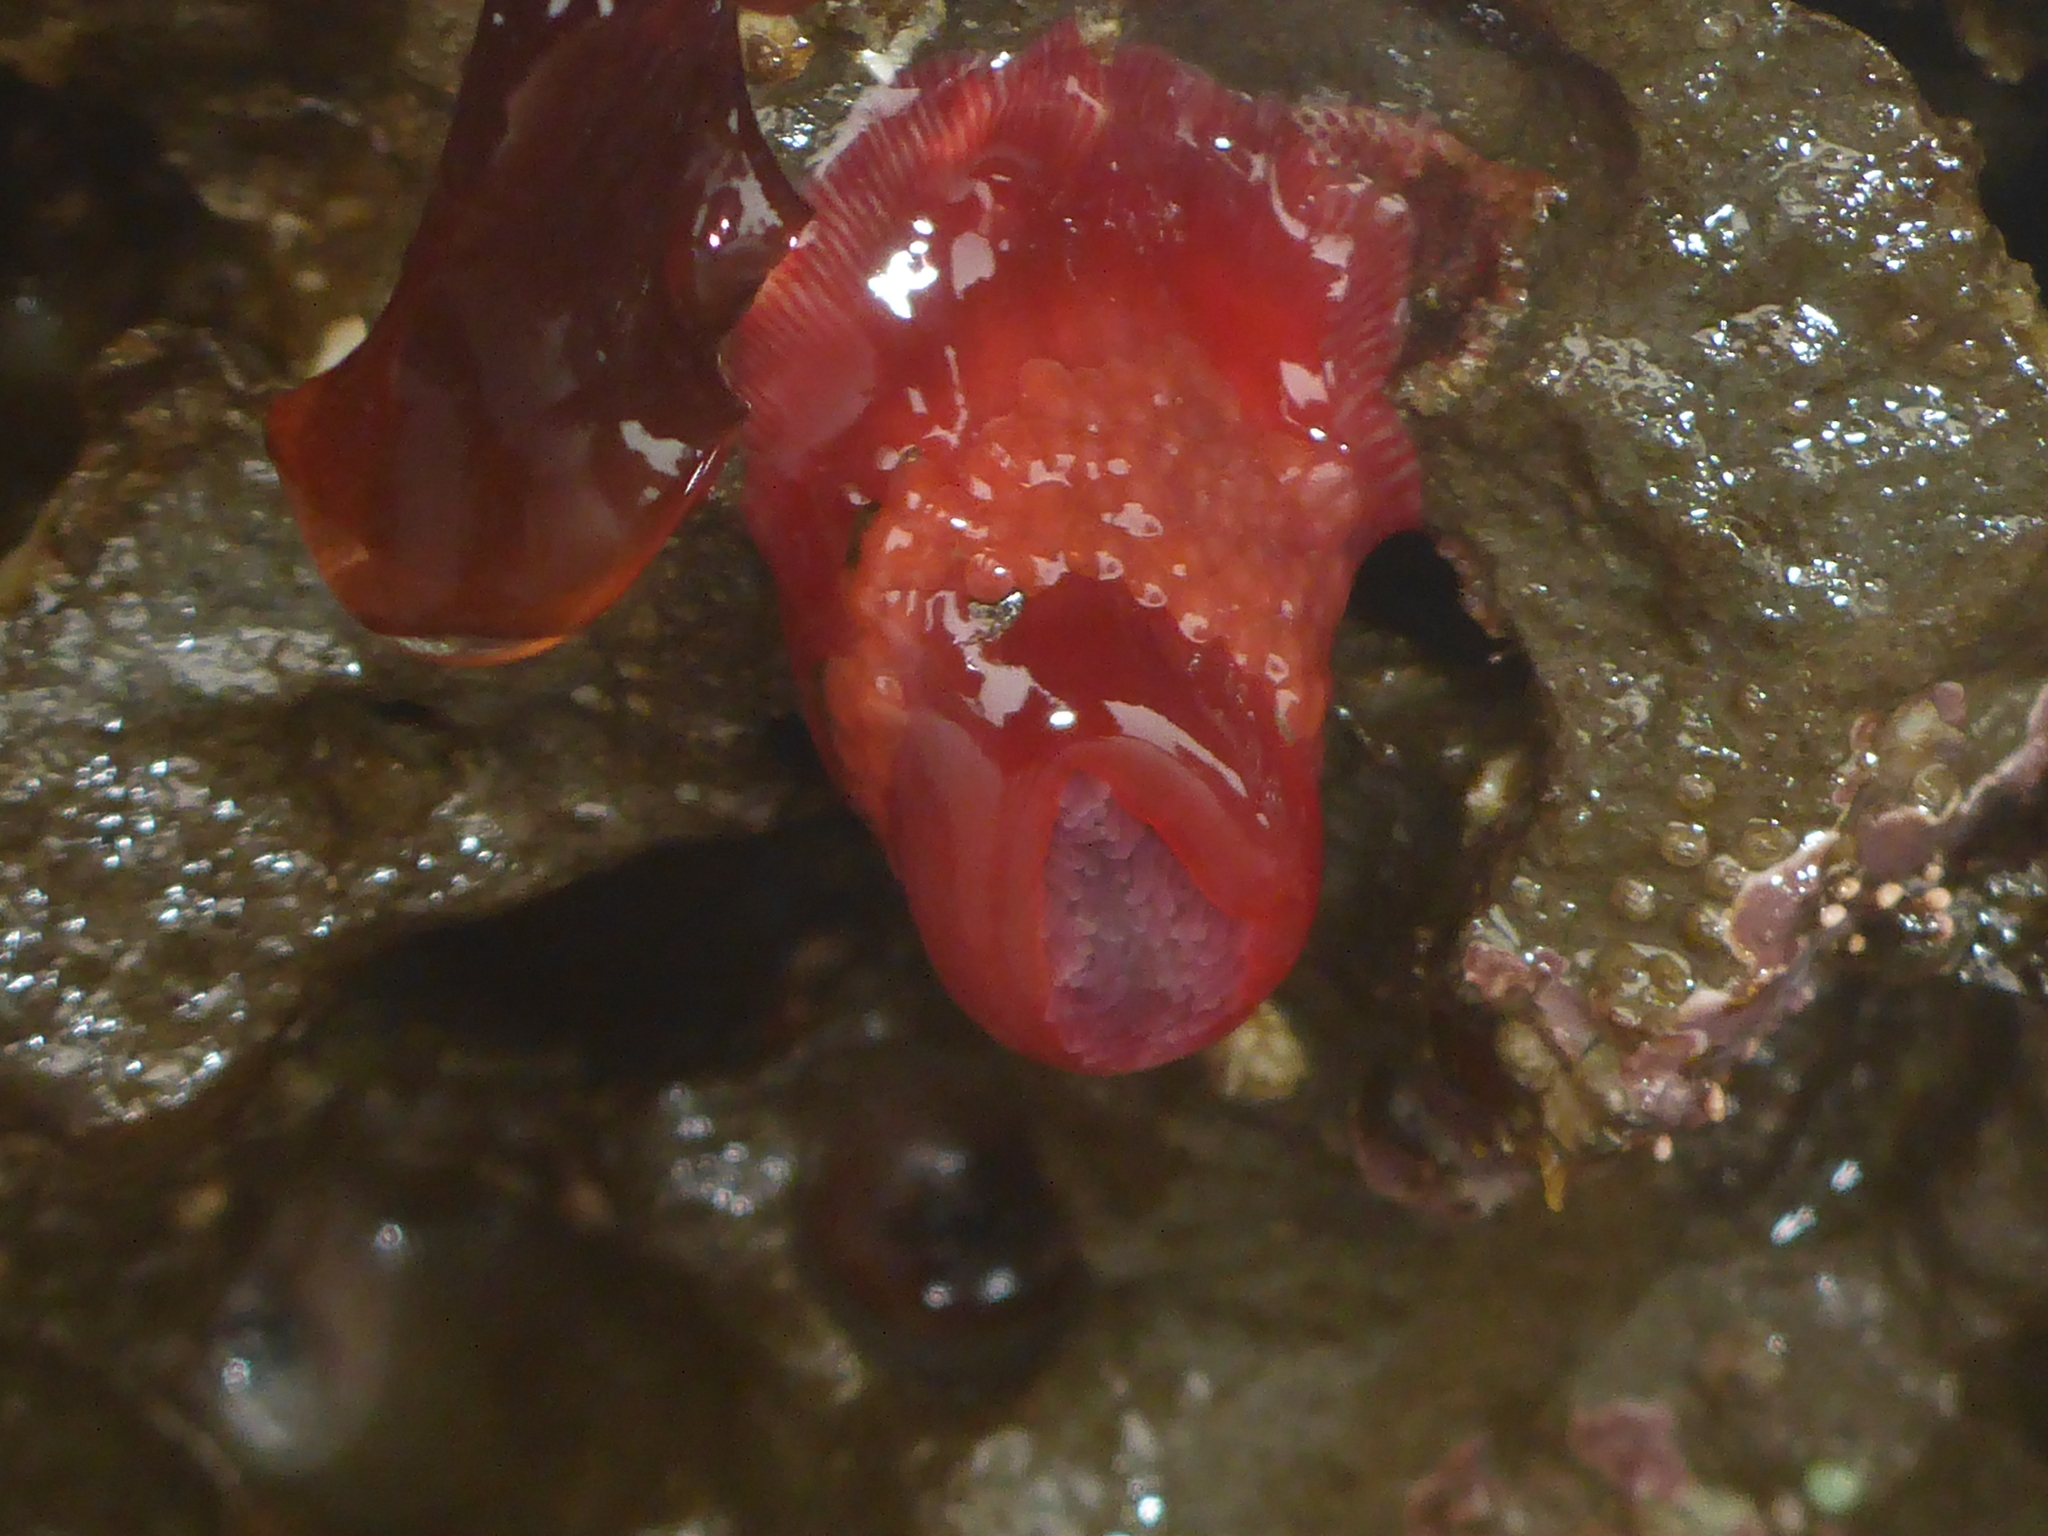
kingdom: Animalia
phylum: Cnidaria
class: Anthozoa
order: Actiniaria
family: Actiniidae
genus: Epiactis
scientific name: Epiactis prolifera
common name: Brooding anemone
